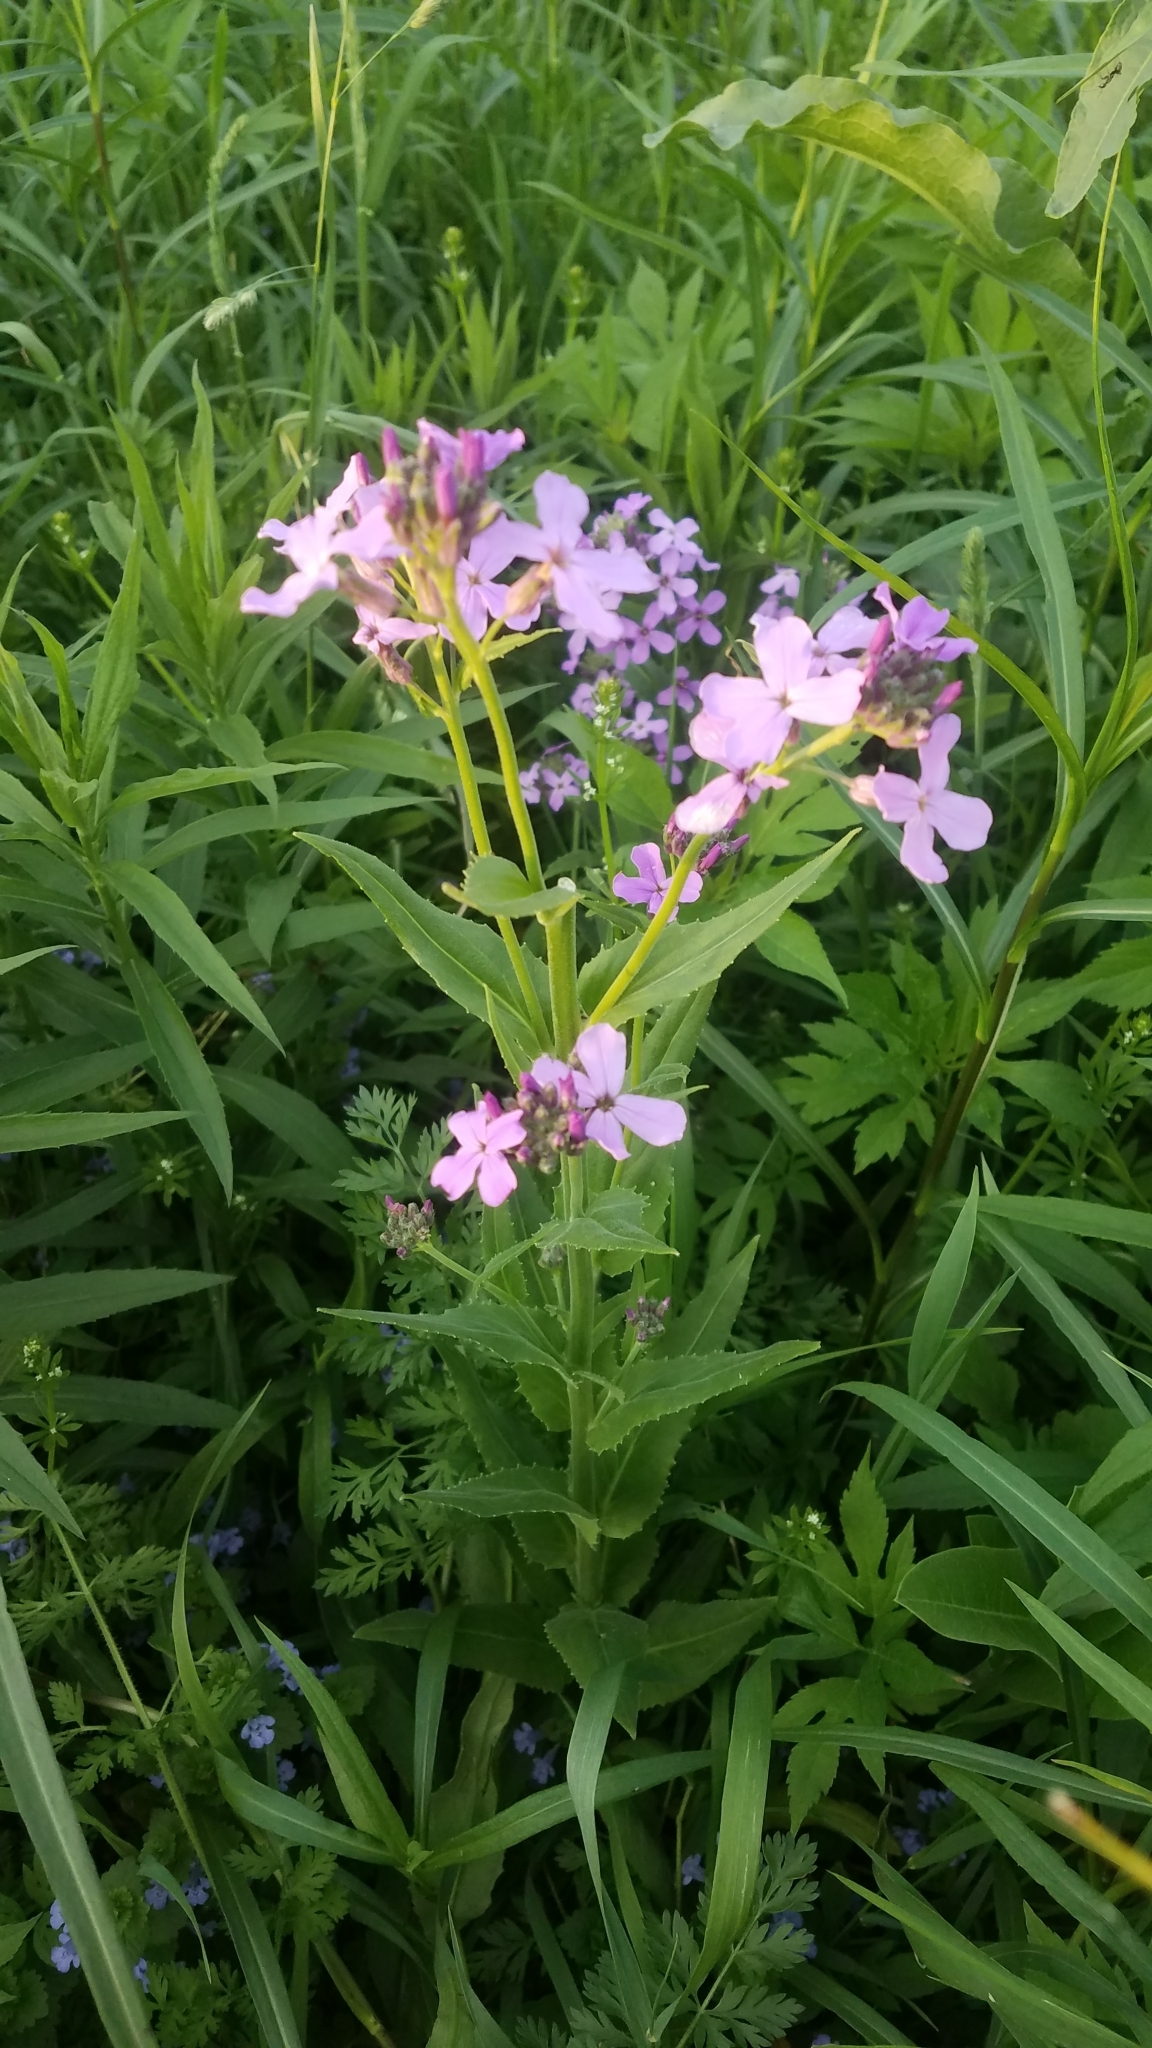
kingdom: Plantae
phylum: Tracheophyta
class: Magnoliopsida
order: Brassicales
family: Brassicaceae
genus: Hesperis
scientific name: Hesperis matronalis
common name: Dame's-violet
